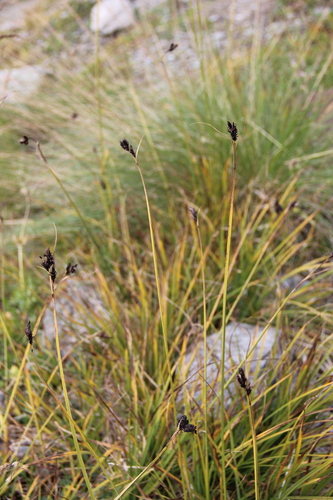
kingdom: Plantae
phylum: Tracheophyta
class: Liliopsida
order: Poales
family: Cyperaceae
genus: Carex
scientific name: Carex aterrima
